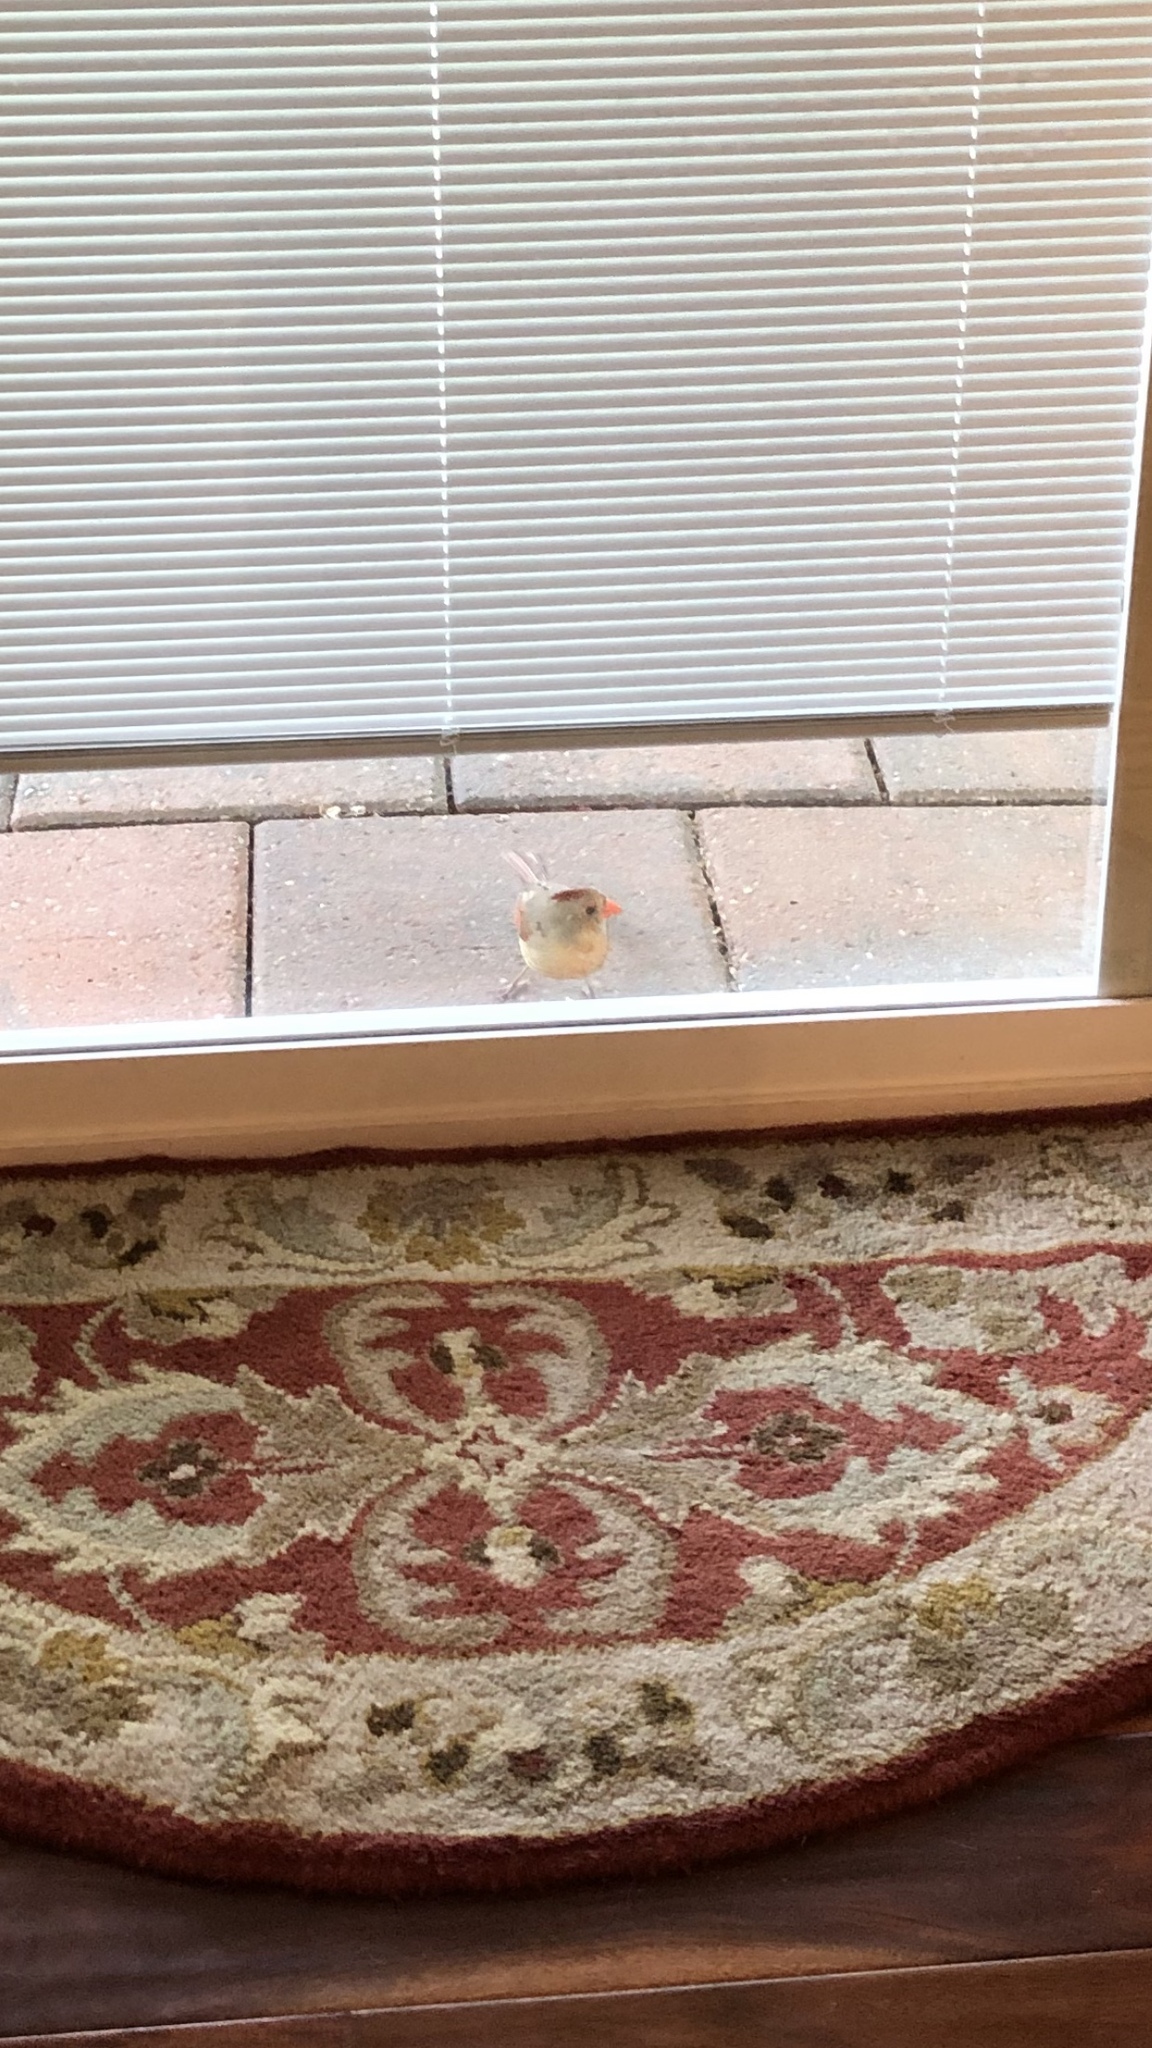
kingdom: Animalia
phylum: Chordata
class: Aves
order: Passeriformes
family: Cardinalidae
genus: Cardinalis
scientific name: Cardinalis cardinalis
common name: Northern cardinal
